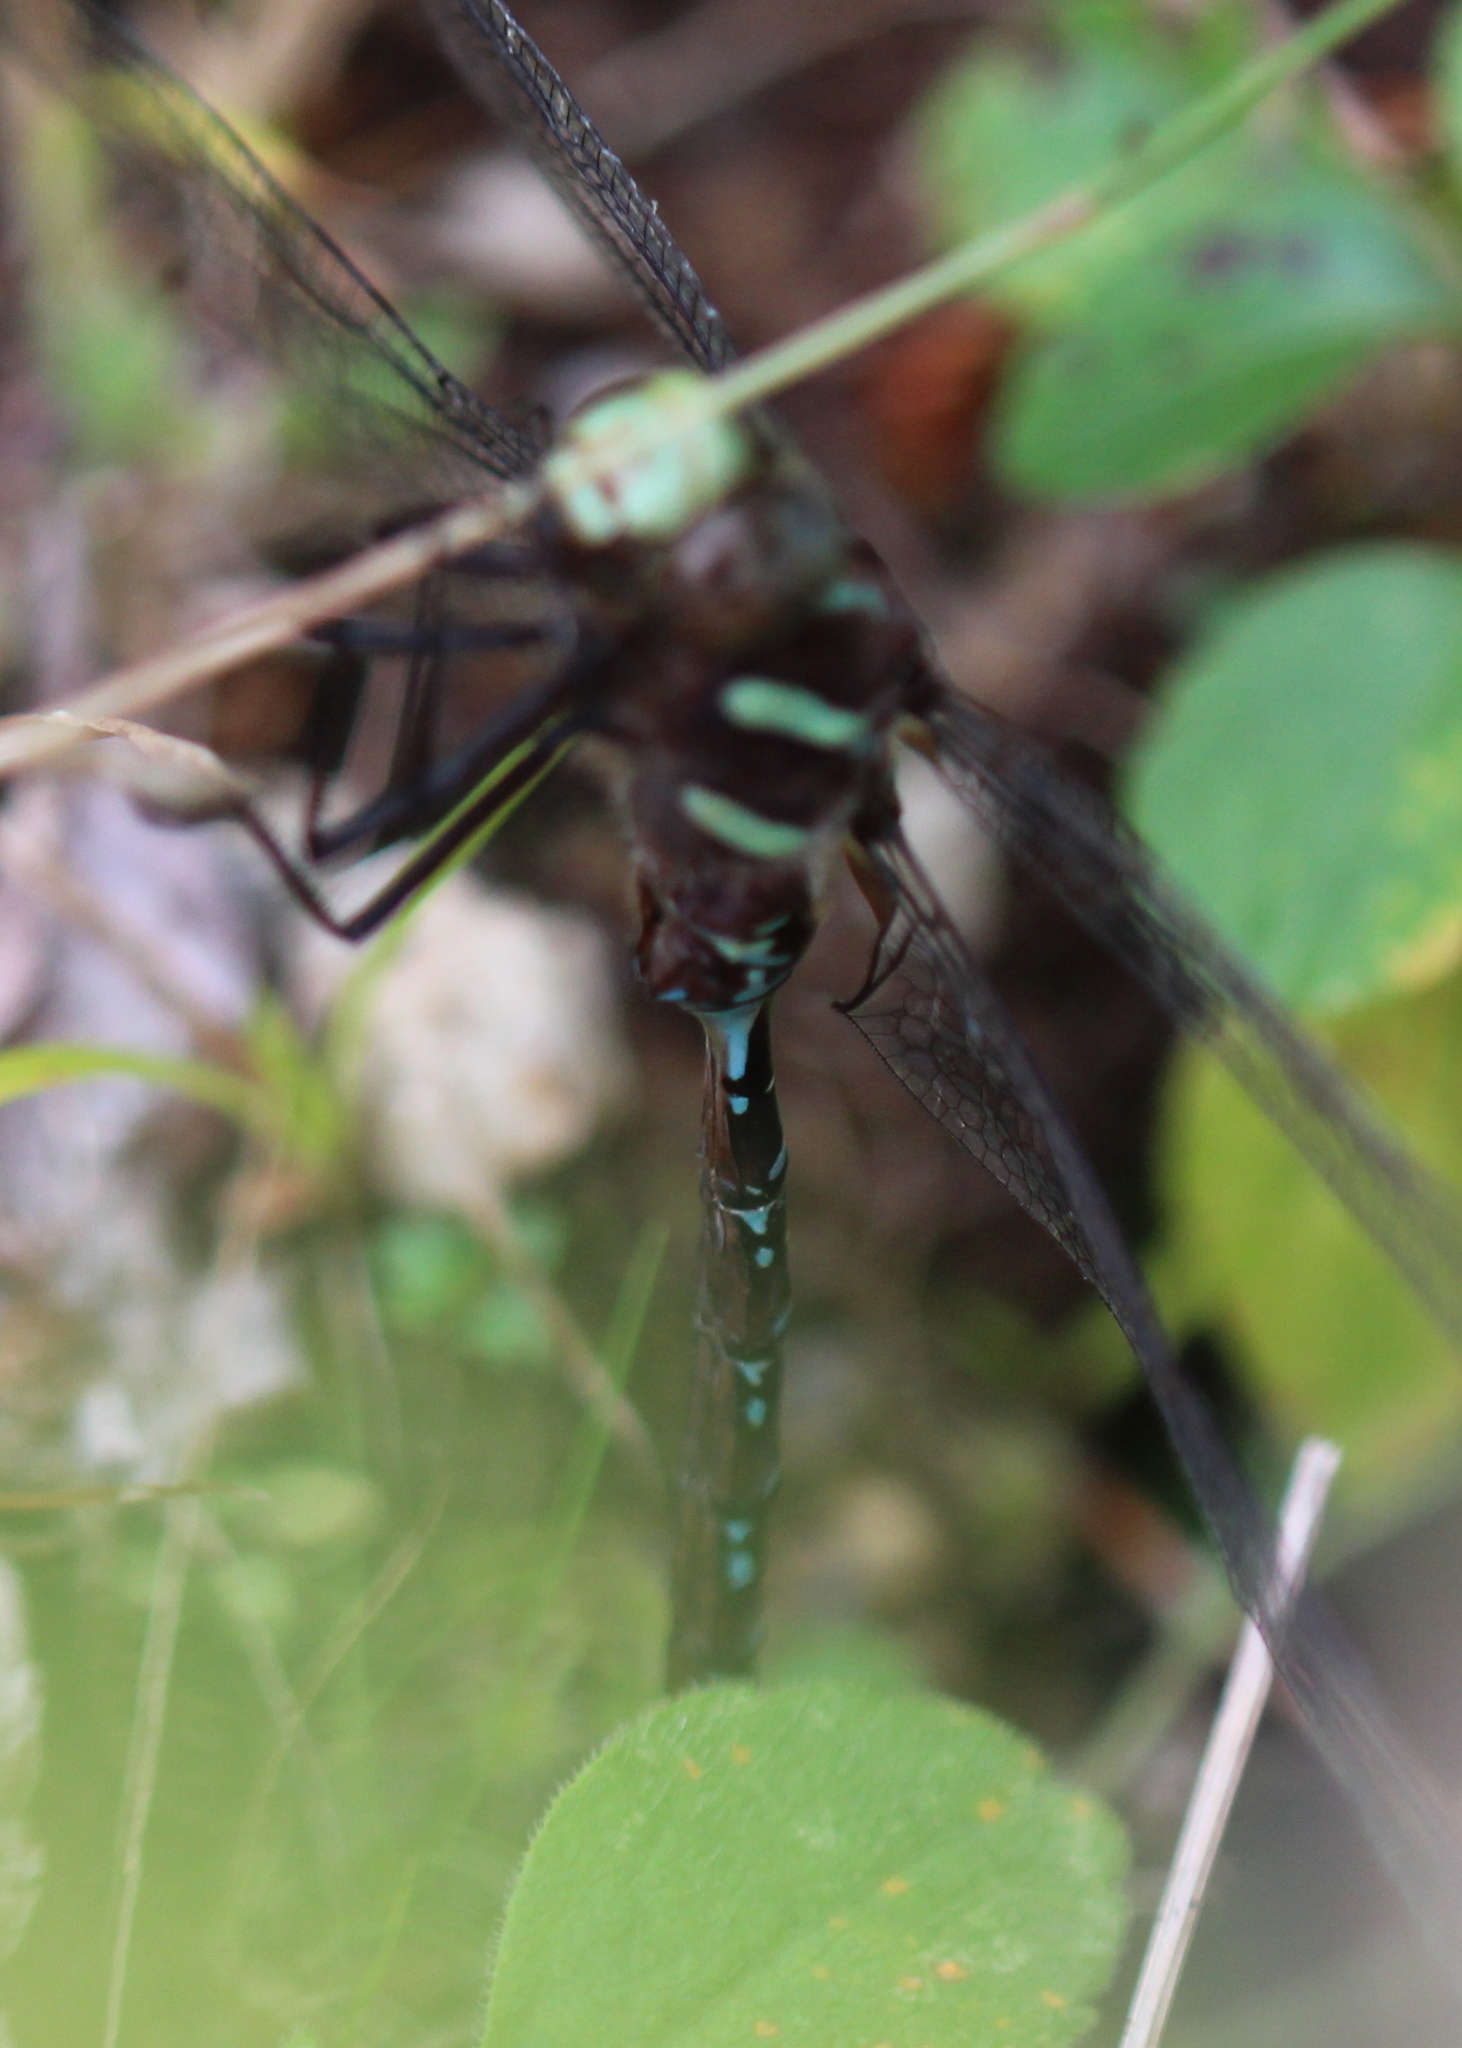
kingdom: Animalia
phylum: Arthropoda
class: Insecta
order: Odonata
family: Aeshnidae
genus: Aeshna
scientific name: Aeshna tuberculifera
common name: Aeschne à tubercules
